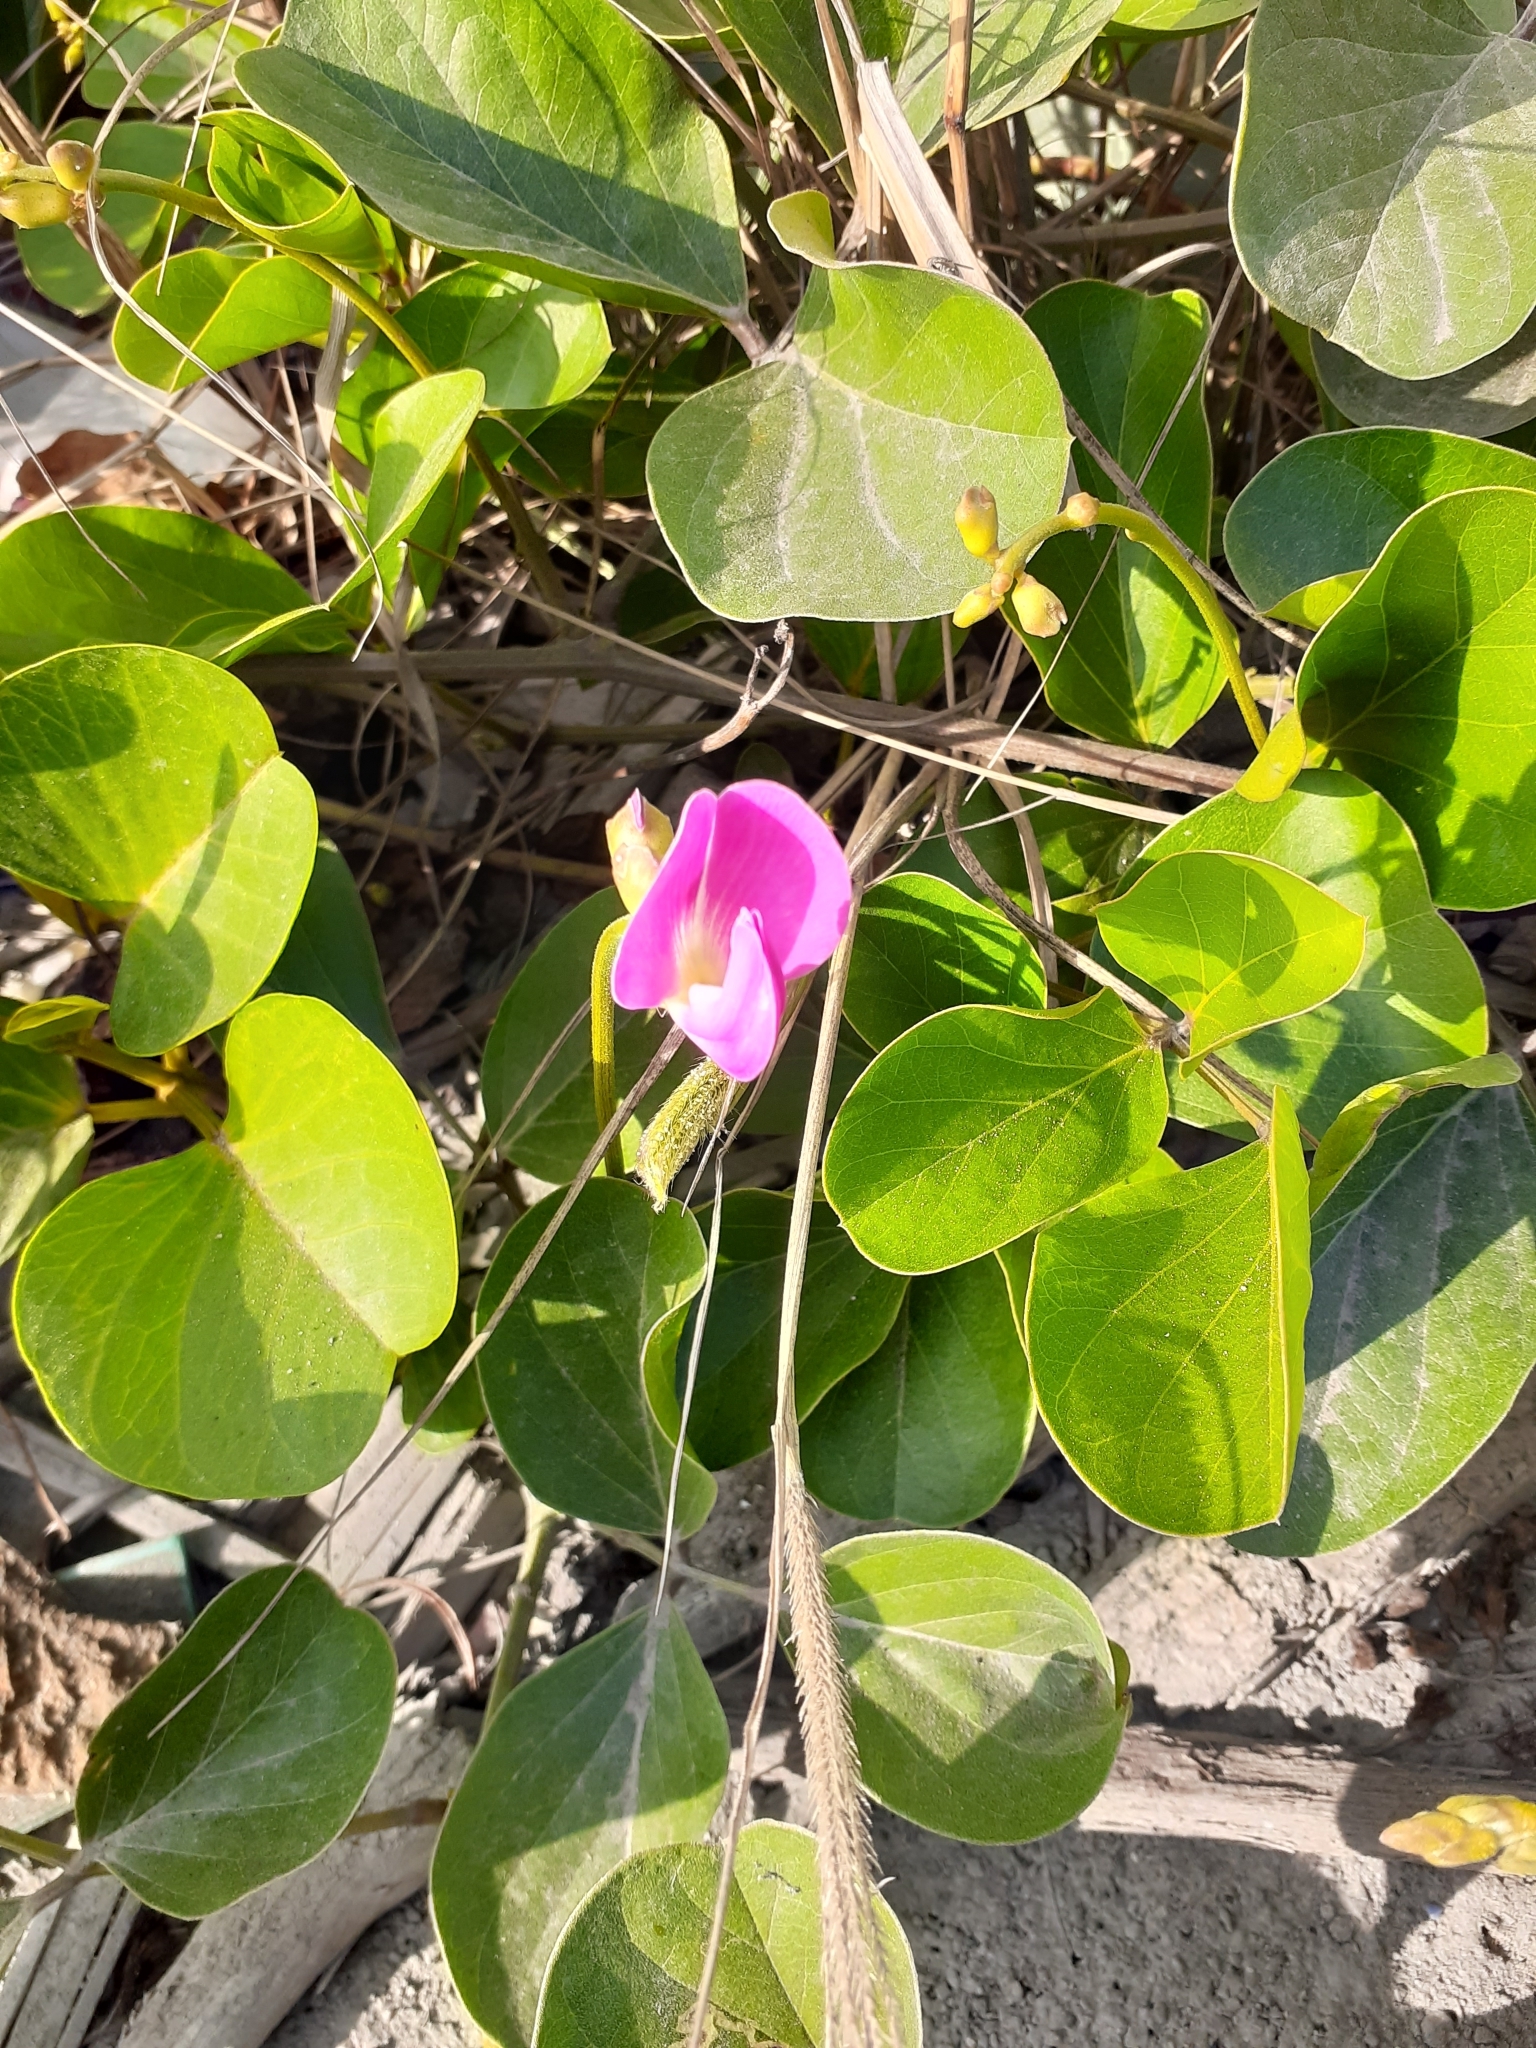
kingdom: Plantae
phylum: Tracheophyta
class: Magnoliopsida
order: Fabales
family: Fabaceae
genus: Canavalia
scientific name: Canavalia rosea
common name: Beach-bean
